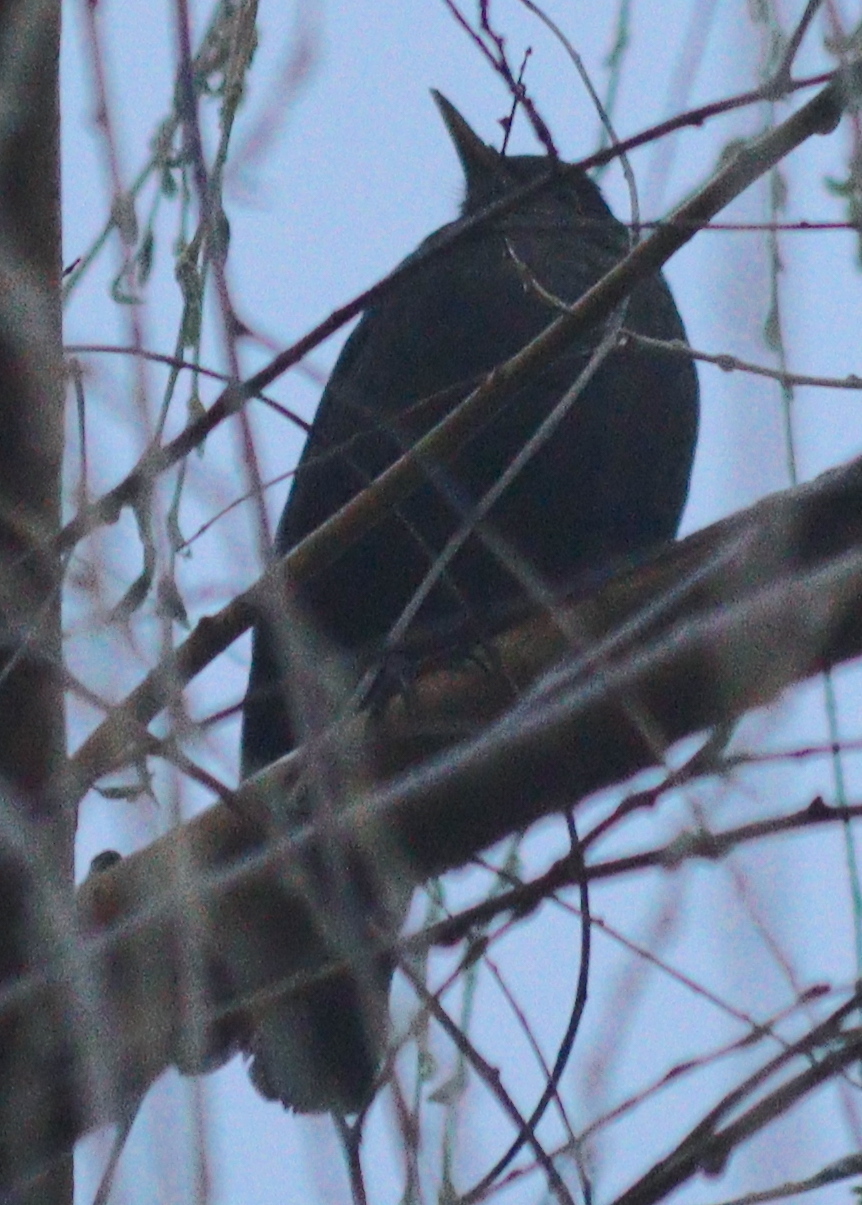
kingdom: Animalia
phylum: Chordata
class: Aves
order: Passeriformes
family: Turdidae
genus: Turdus
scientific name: Turdus merula
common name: Common blackbird
